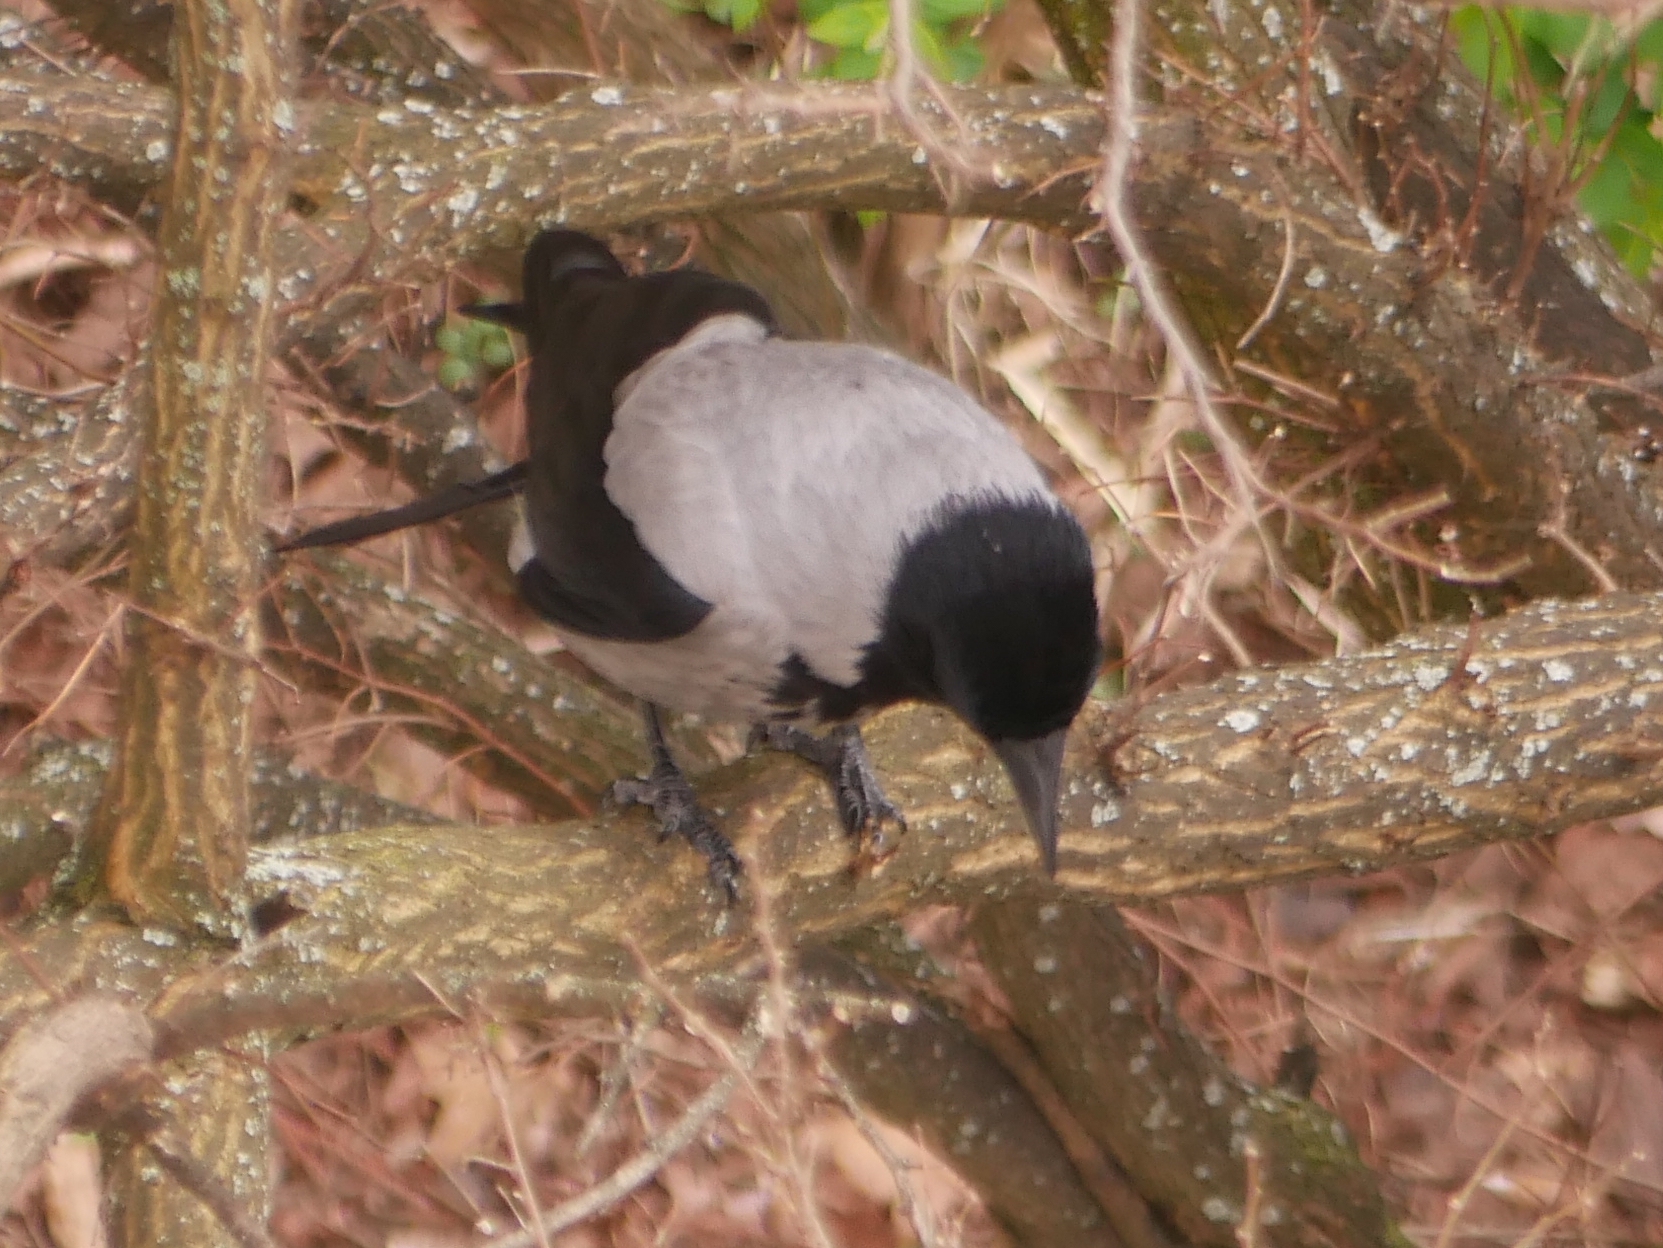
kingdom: Animalia
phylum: Chordata
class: Aves
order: Passeriformes
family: Corvidae
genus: Corvus
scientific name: Corvus cornix
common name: Hooded crow
